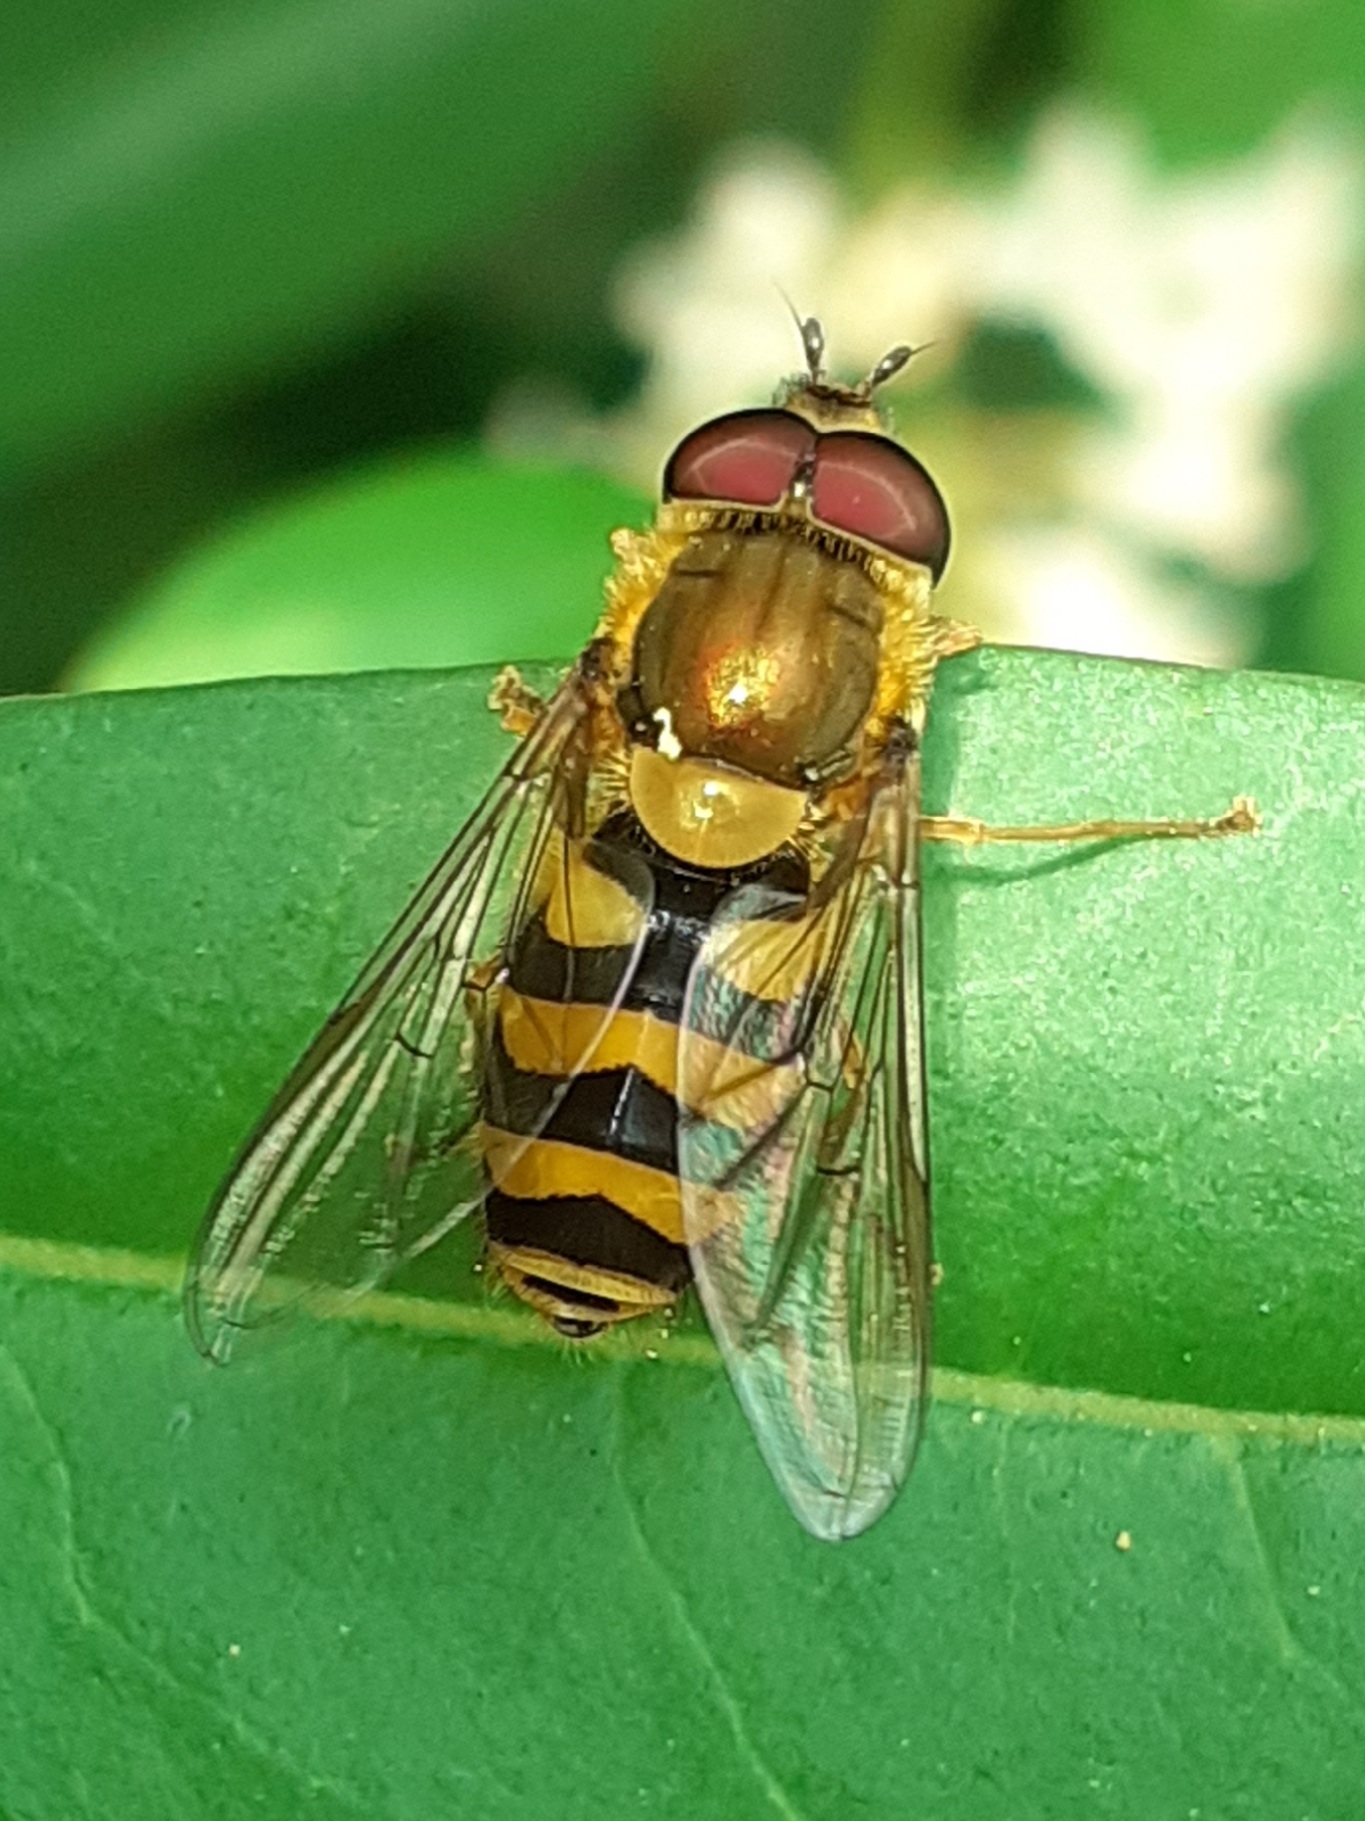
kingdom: Animalia
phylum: Arthropoda
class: Insecta
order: Diptera
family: Syrphidae
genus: Syrphus
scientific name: Syrphus
